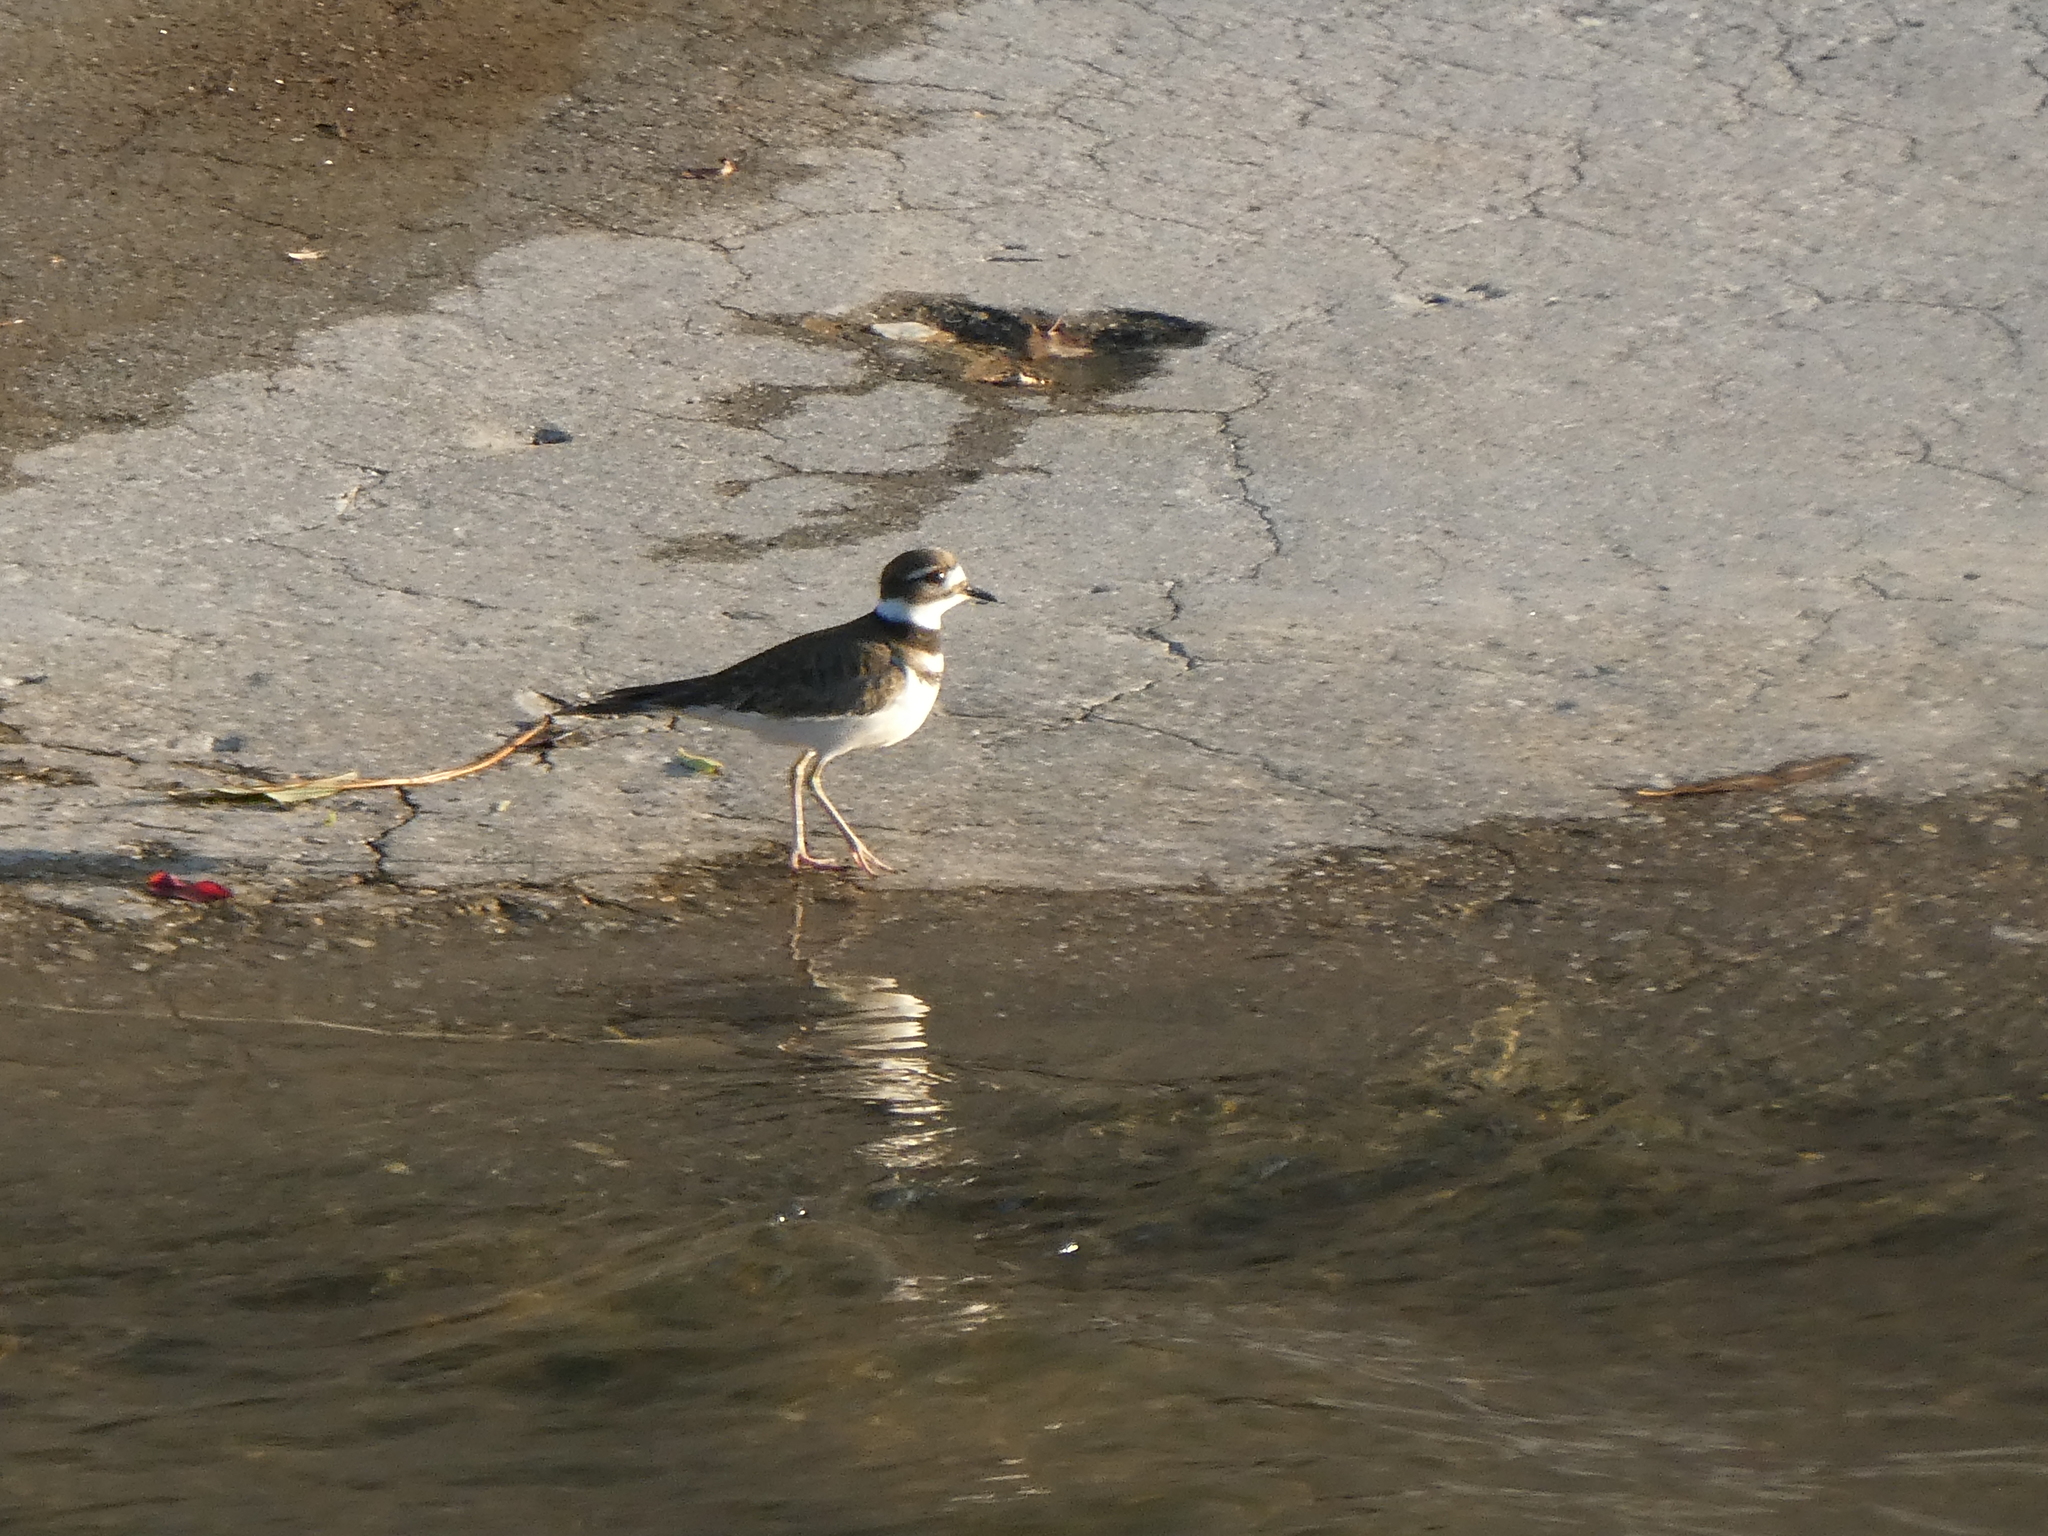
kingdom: Animalia
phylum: Chordata
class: Aves
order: Charadriiformes
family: Charadriidae
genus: Charadrius
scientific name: Charadrius vociferus
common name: Killdeer
